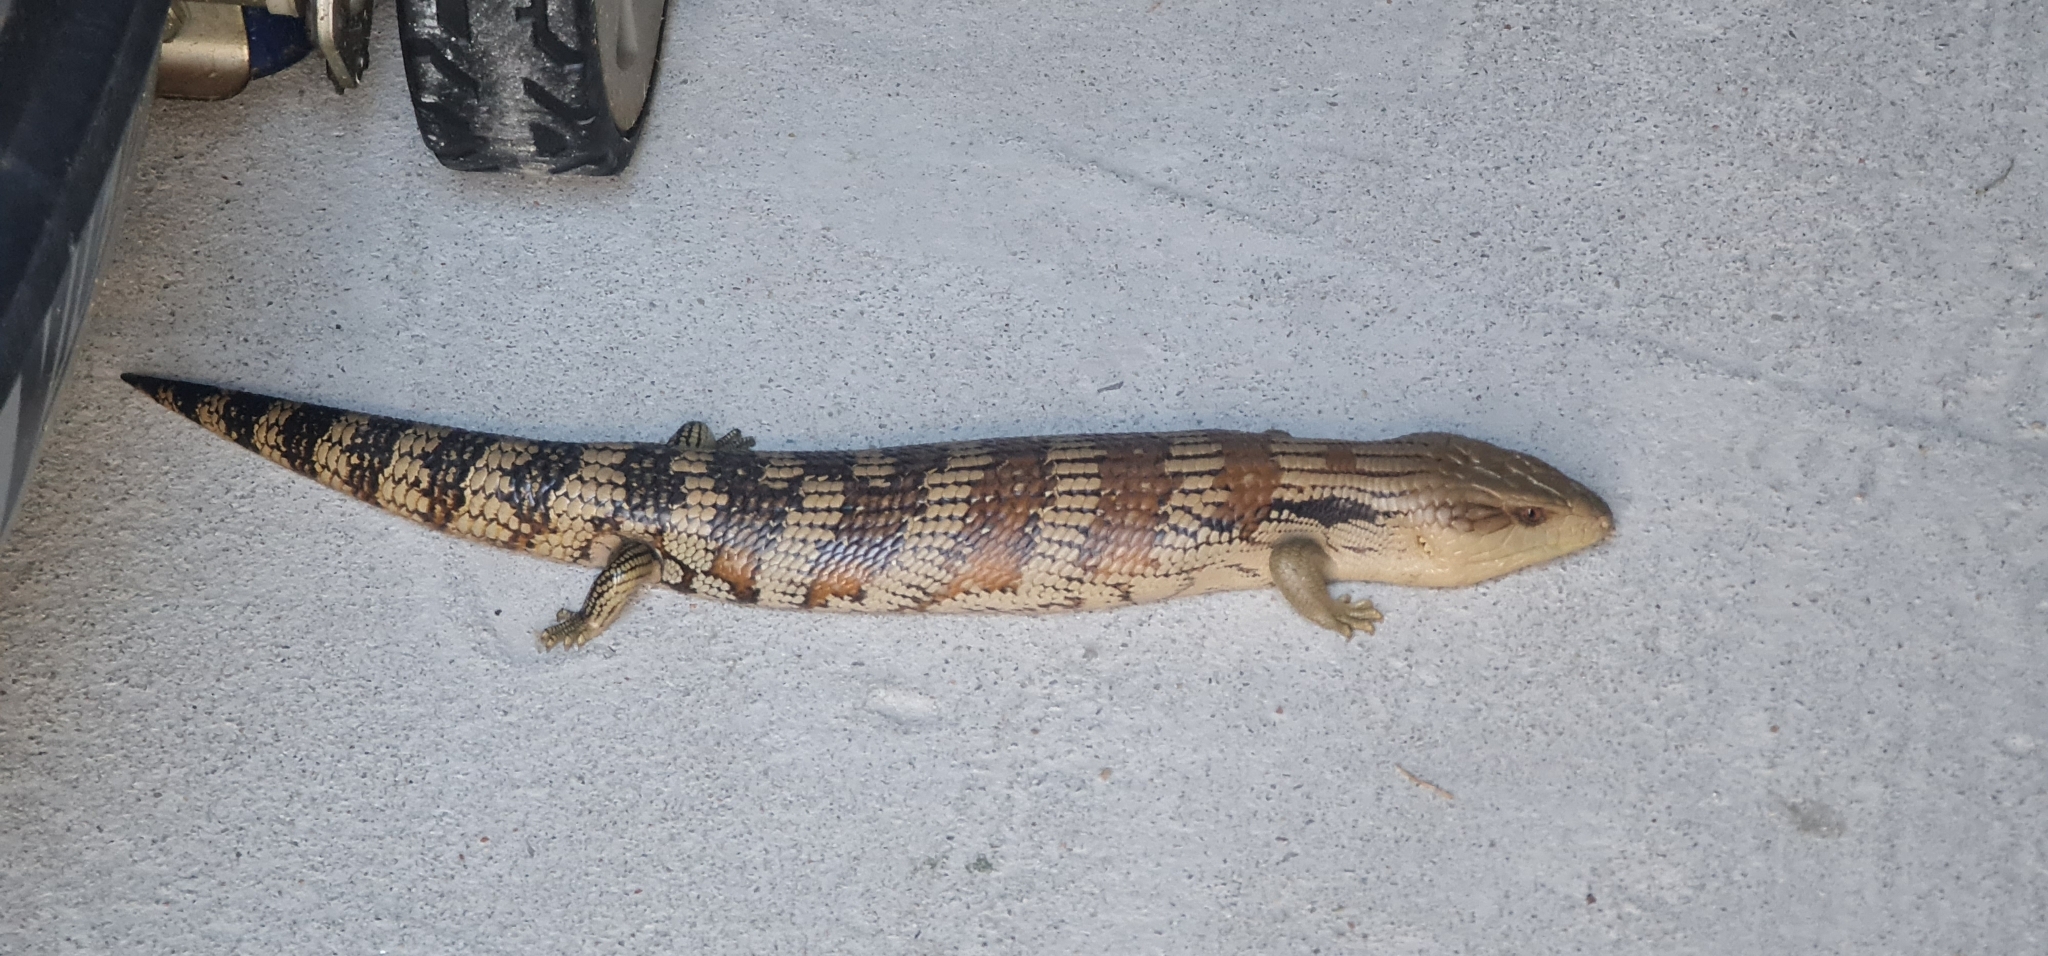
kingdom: Animalia
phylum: Chordata
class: Squamata
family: Scincidae
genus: Tiliqua
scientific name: Tiliqua scincoides
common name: Common bluetongue
